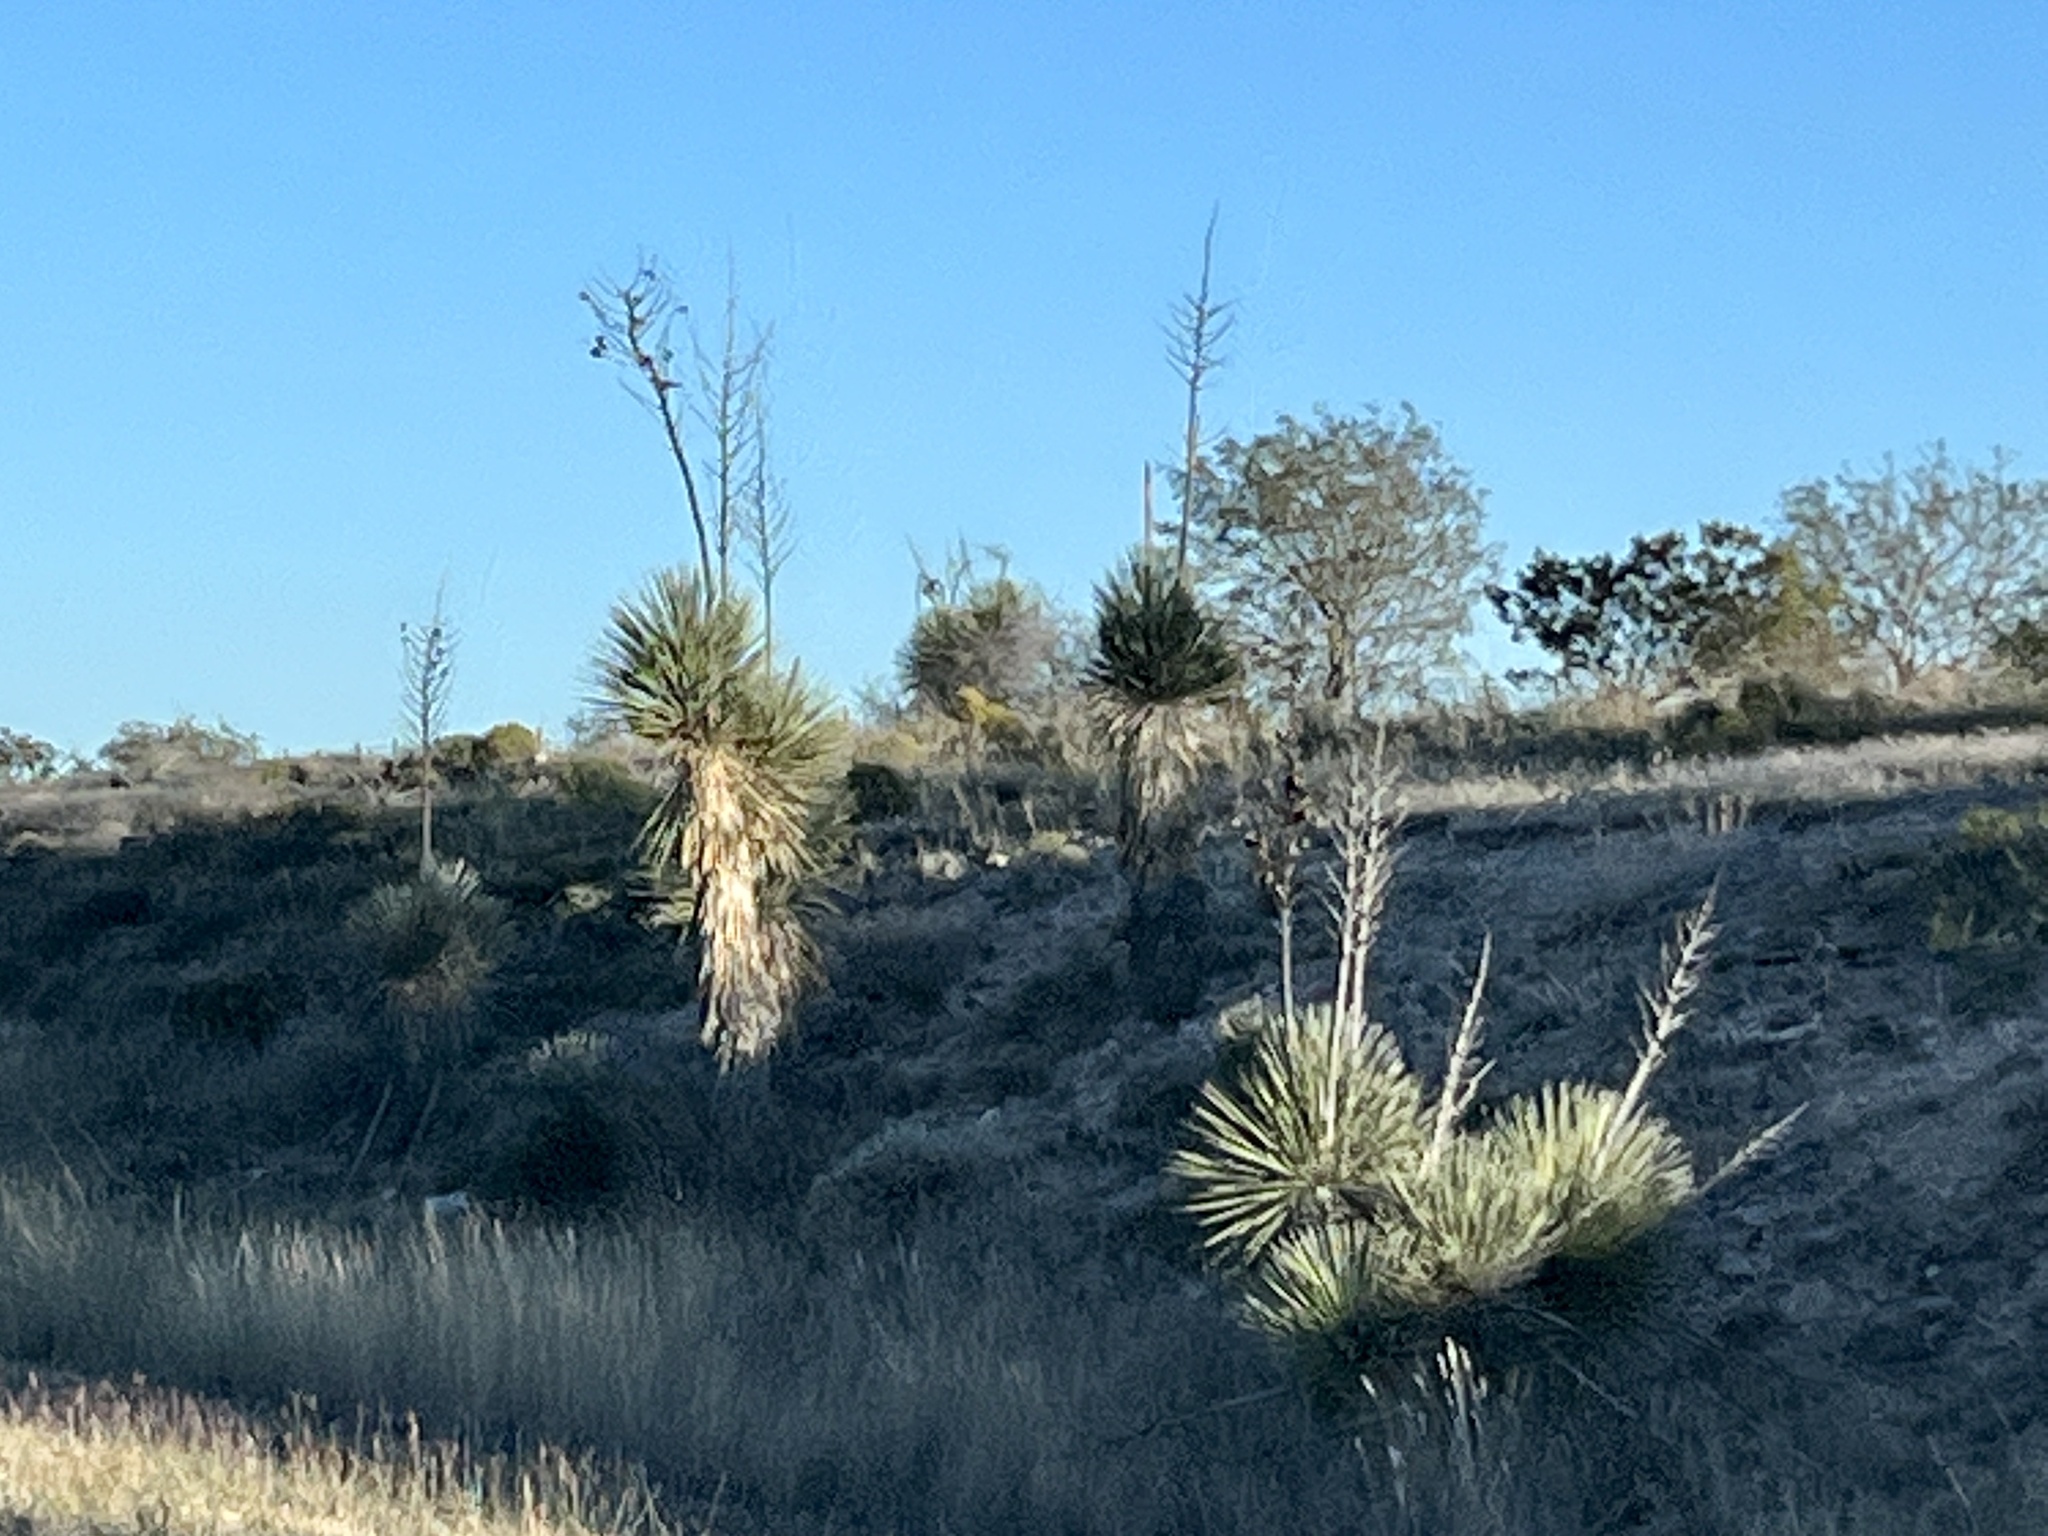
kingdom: Plantae
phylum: Tracheophyta
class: Liliopsida
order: Asparagales
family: Asparagaceae
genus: Yucca
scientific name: Yucca elata
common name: Palmella
